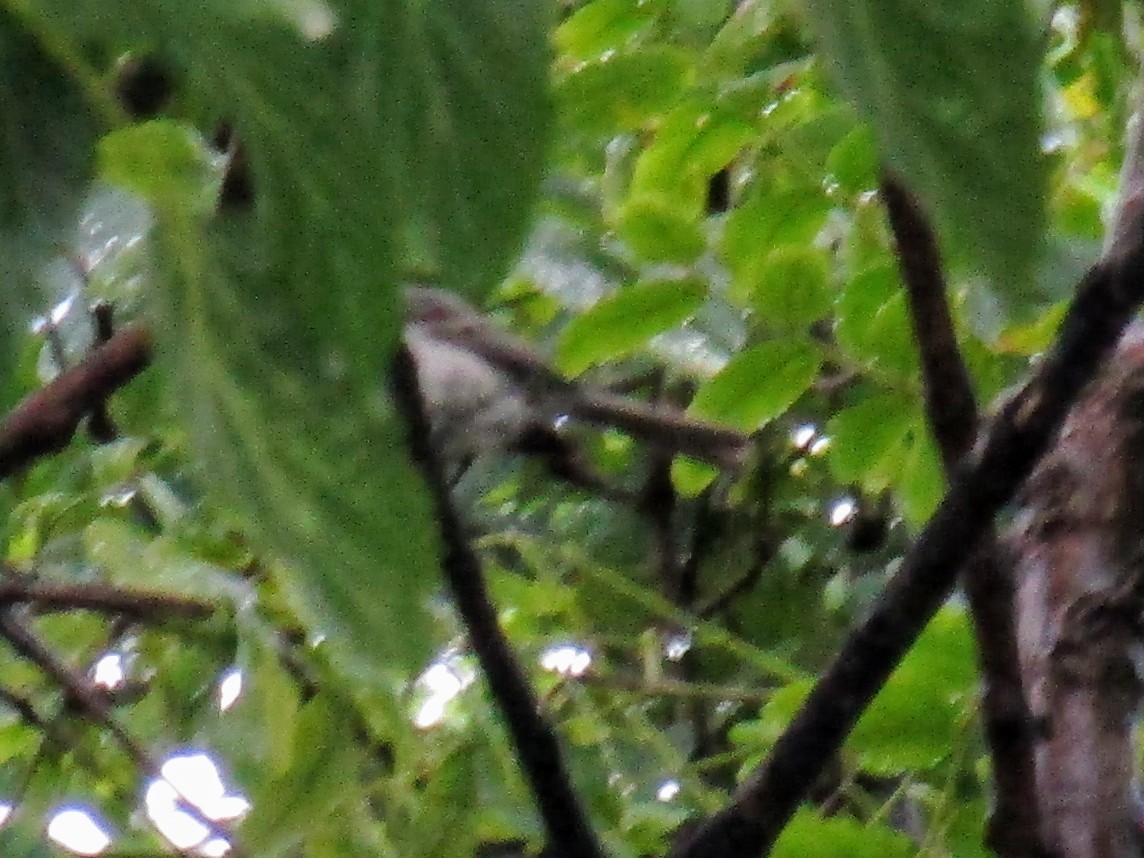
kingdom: Animalia
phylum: Chordata
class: Aves
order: Passeriformes
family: Tyrannidae
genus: Serpophaga
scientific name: Serpophaga subcristata
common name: White-crested tyrannulet
